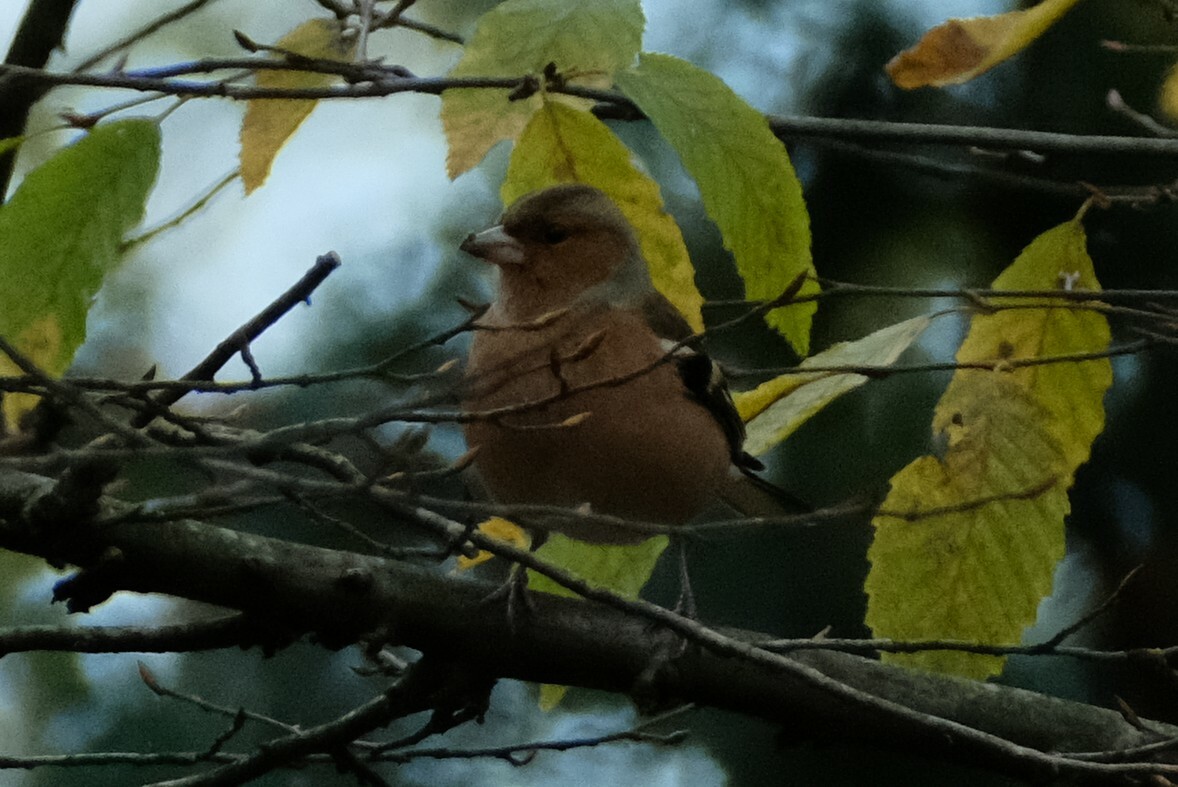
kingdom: Animalia
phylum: Chordata
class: Aves
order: Passeriformes
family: Fringillidae
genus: Fringilla
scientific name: Fringilla coelebs
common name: Common chaffinch
